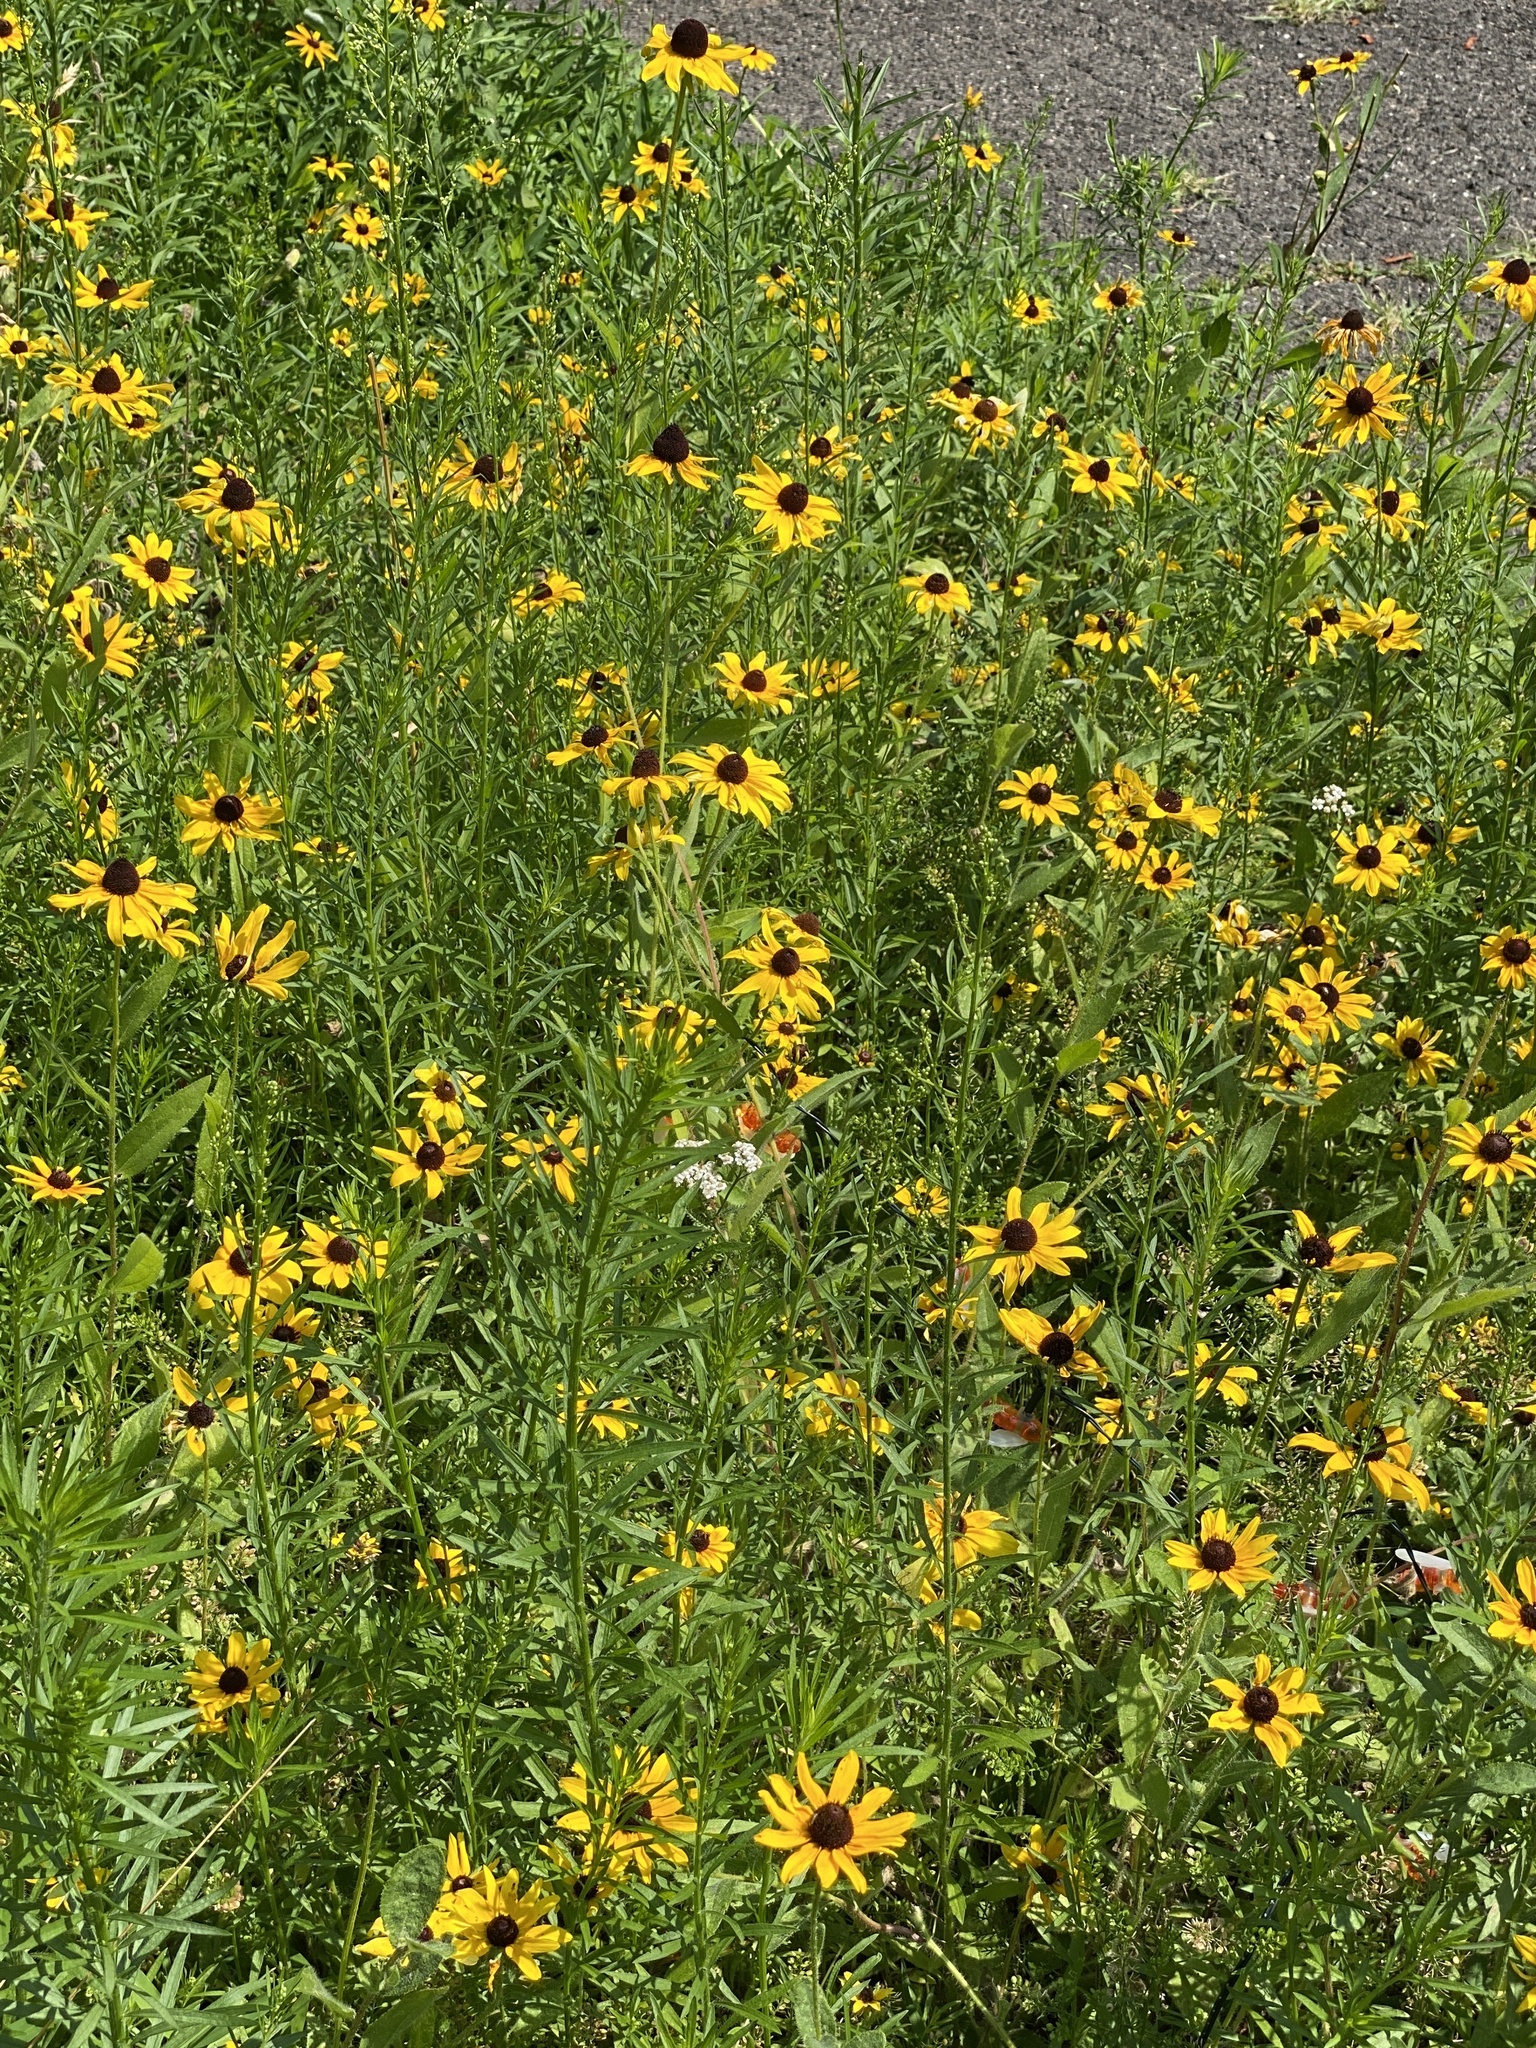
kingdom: Plantae
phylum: Tracheophyta
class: Magnoliopsida
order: Asterales
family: Asteraceae
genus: Rudbeckia
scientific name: Rudbeckia hirta
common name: Black-eyed-susan
